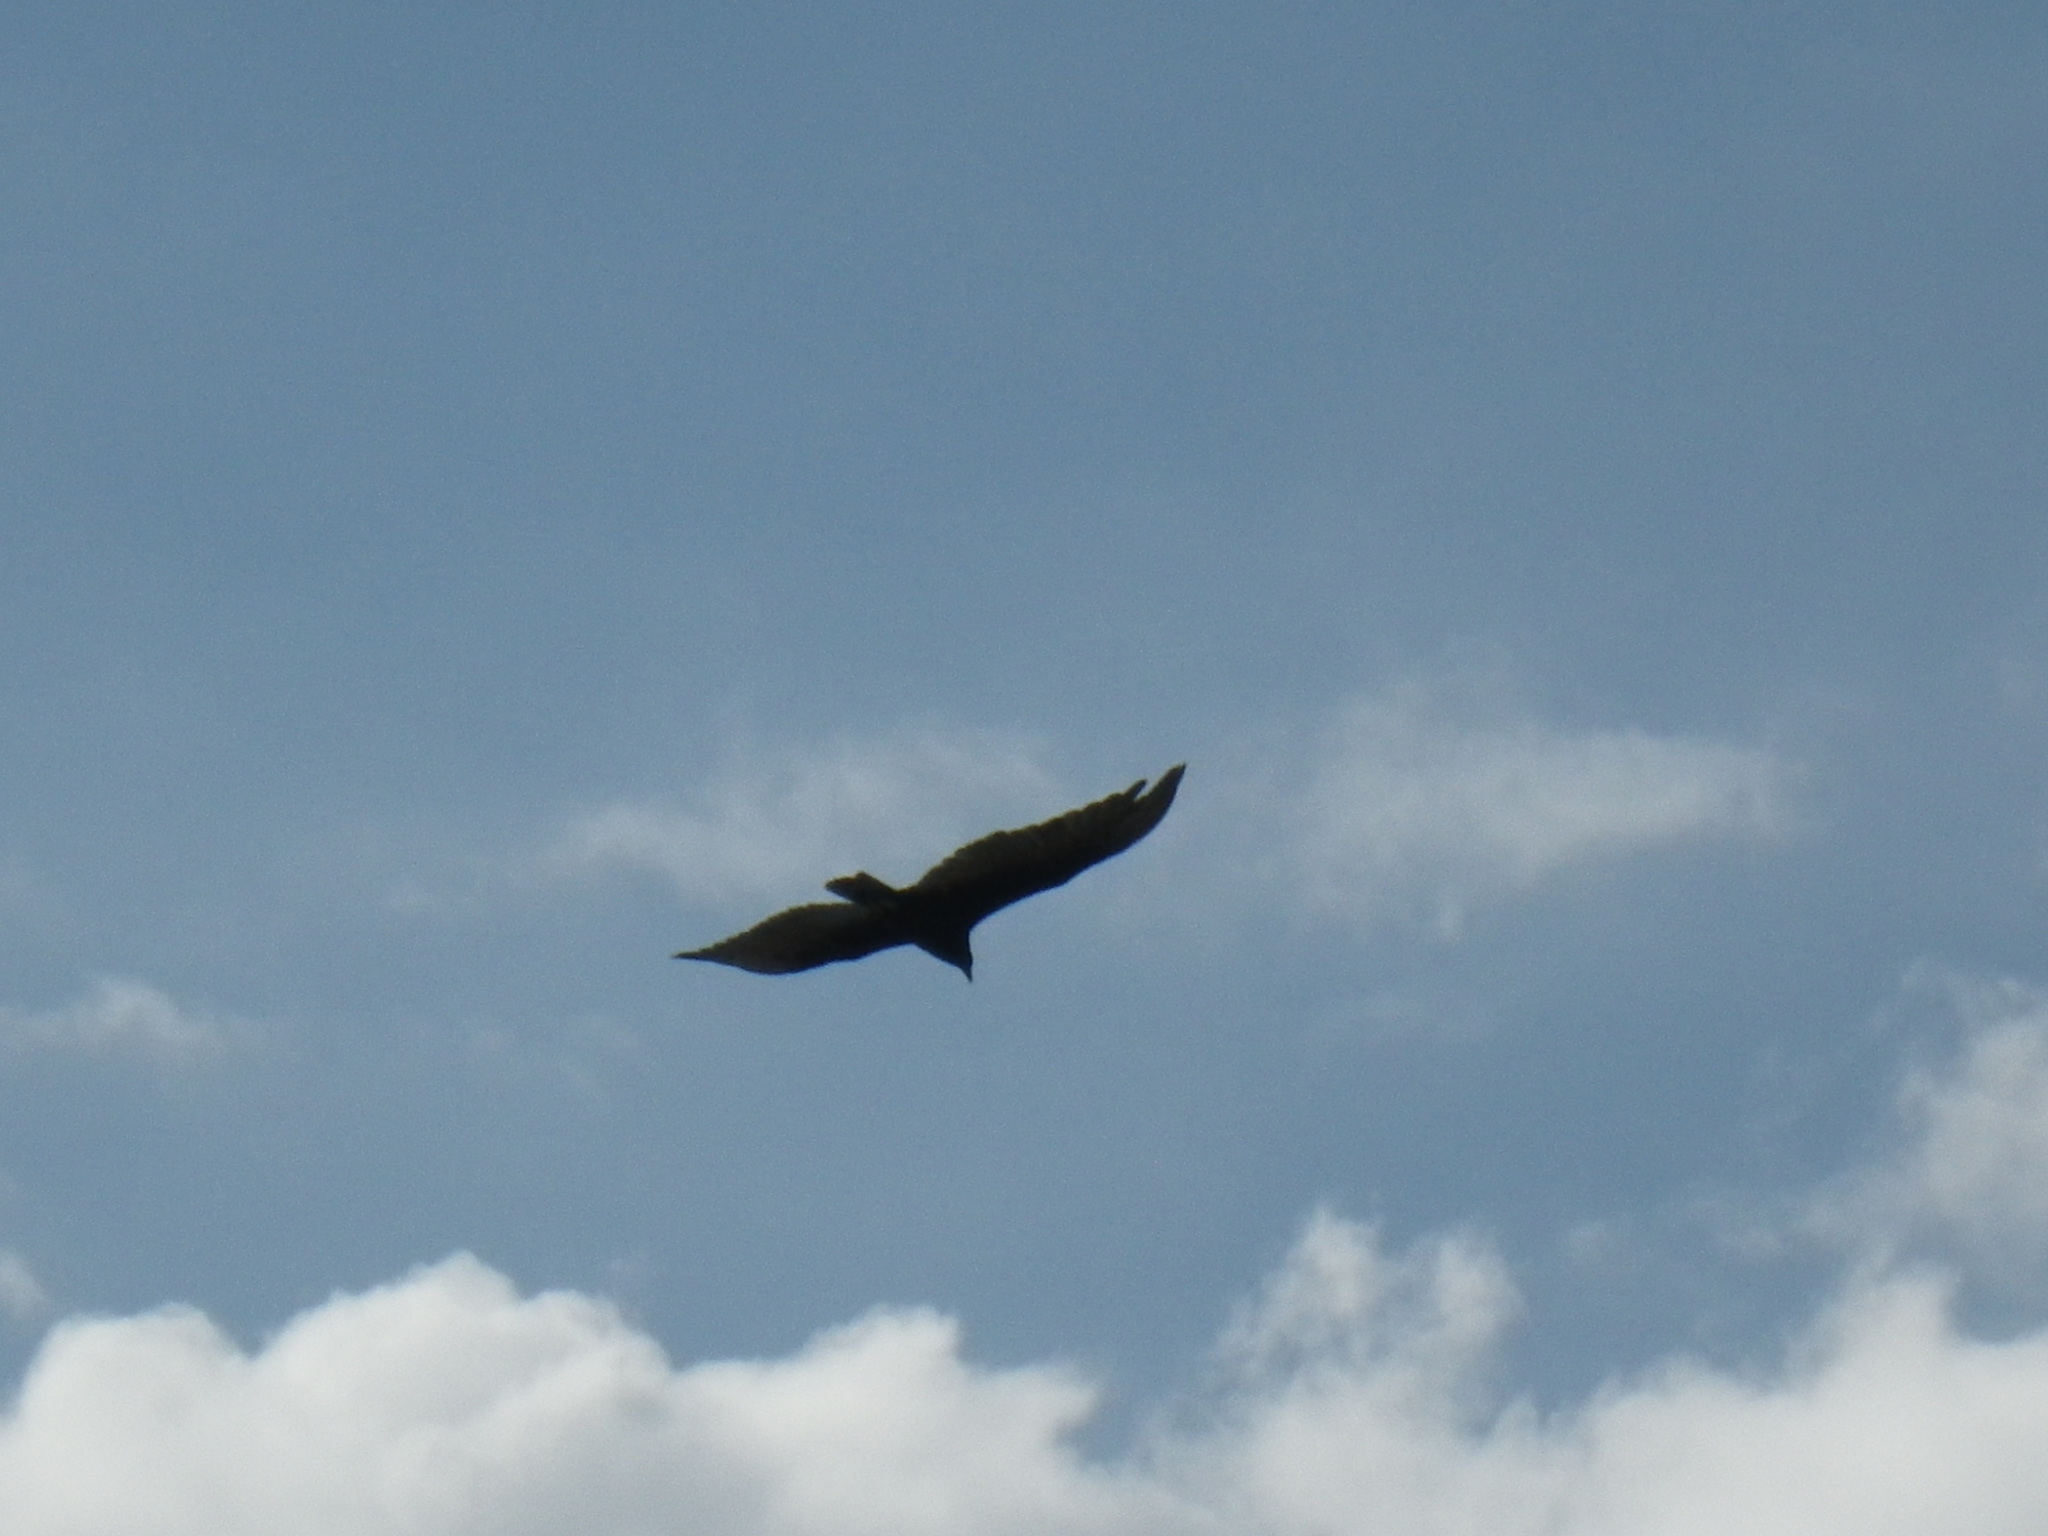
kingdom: Animalia
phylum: Chordata
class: Aves
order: Accipitriformes
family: Cathartidae
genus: Cathartes
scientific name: Cathartes aura
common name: Turkey vulture
